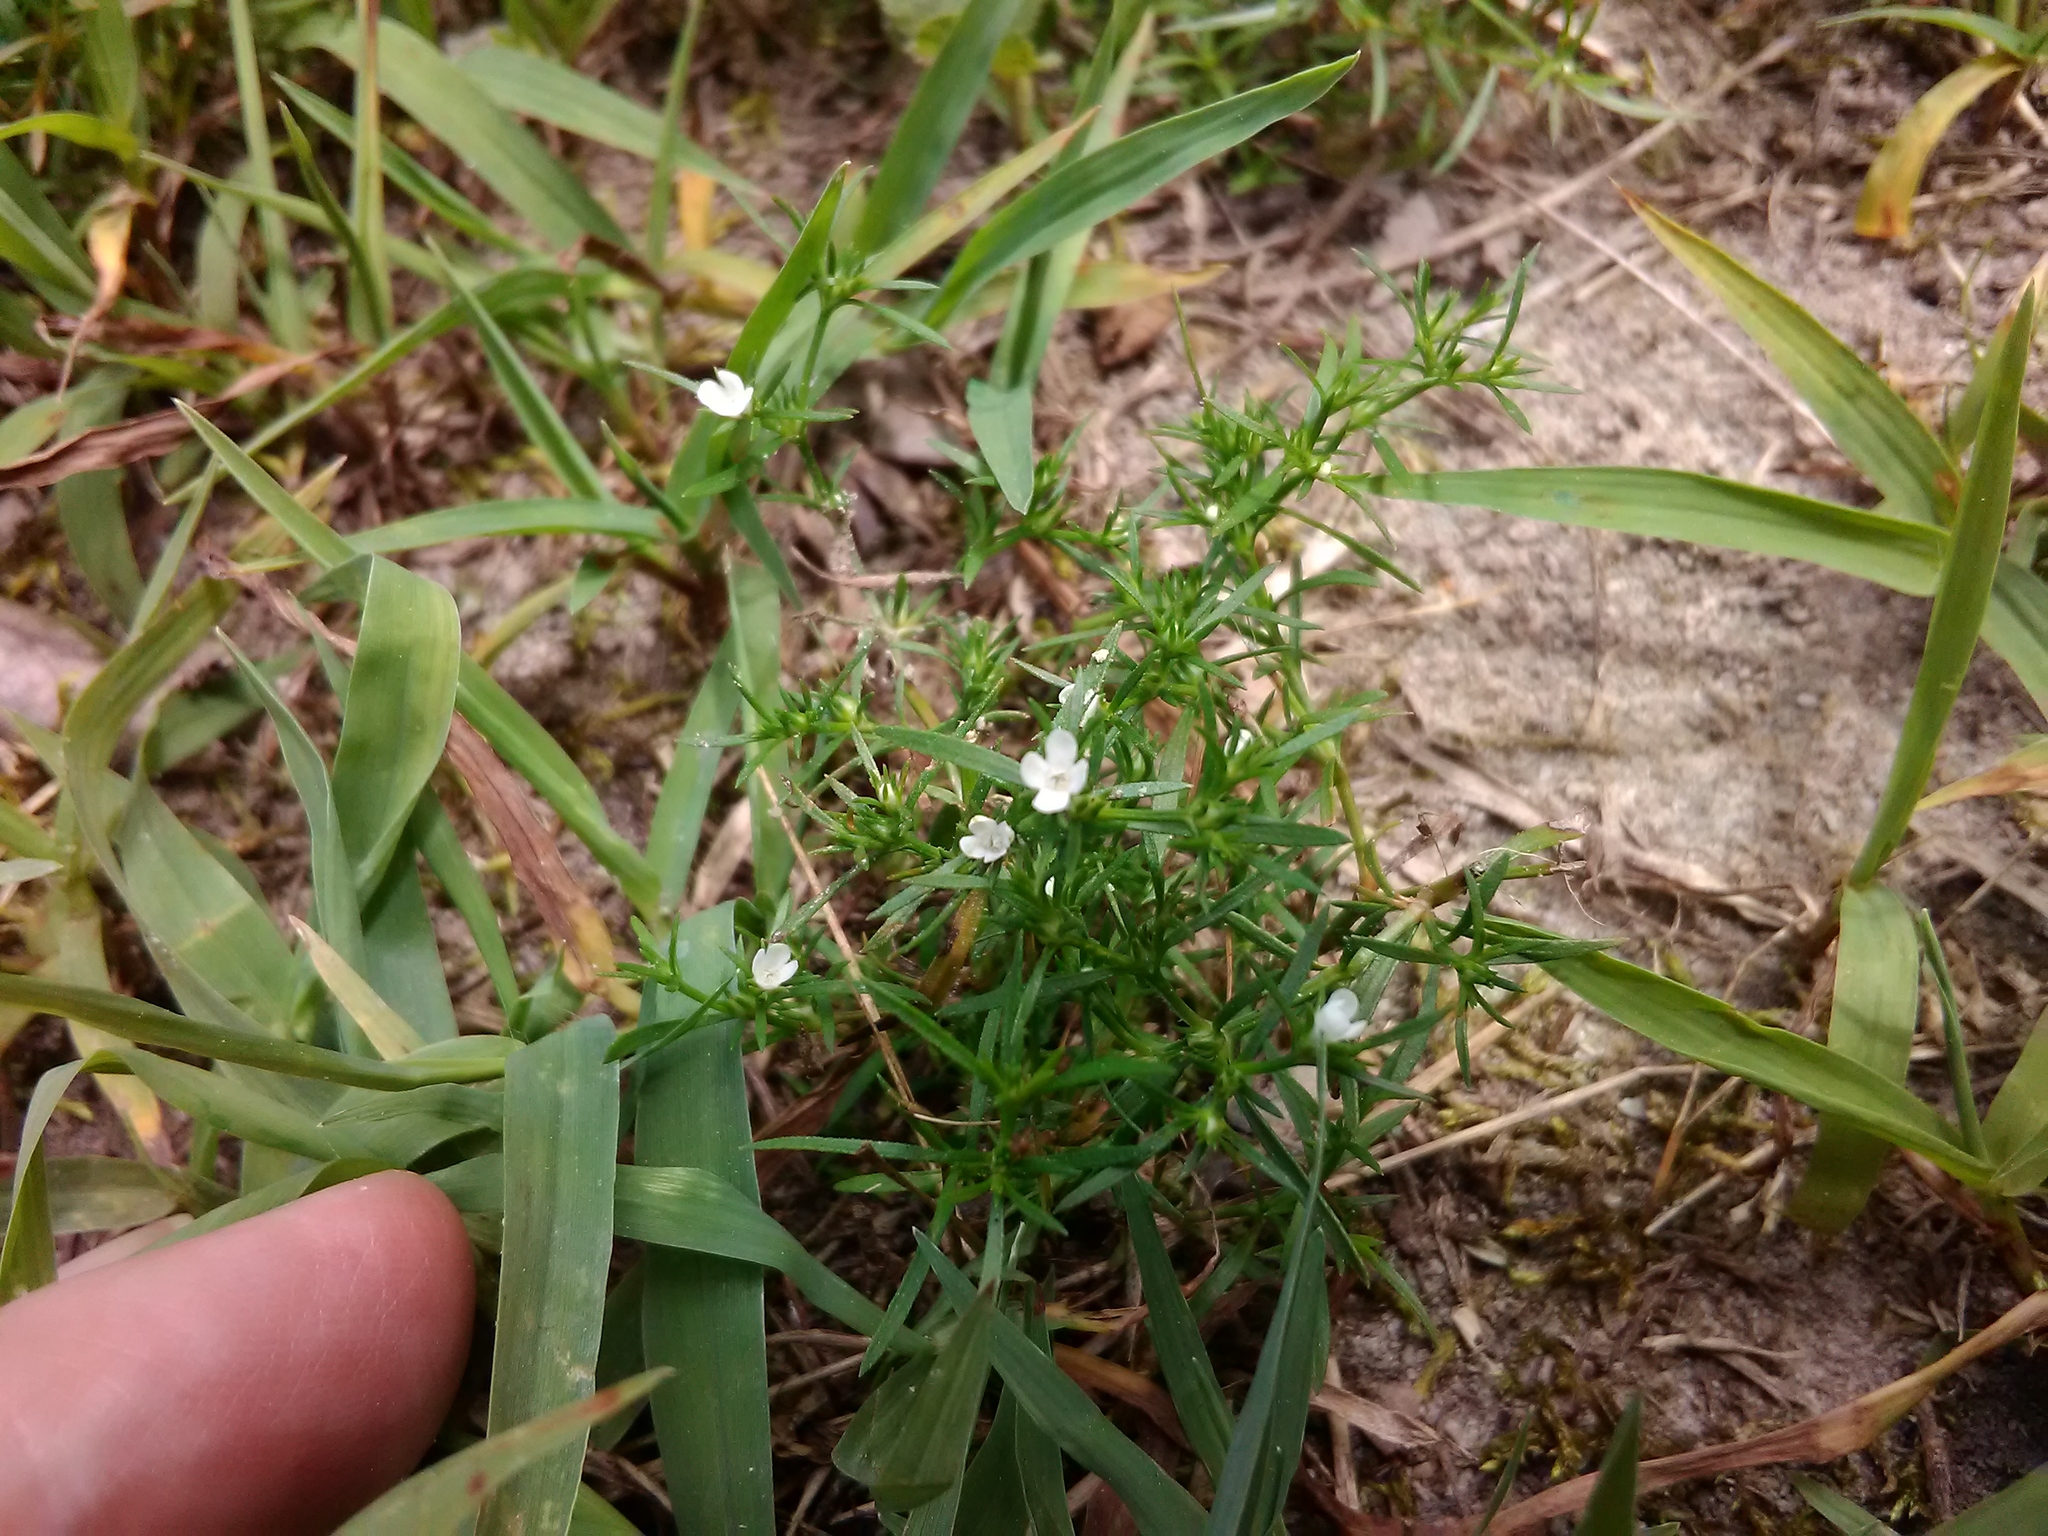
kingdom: Plantae
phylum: Tracheophyta
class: Magnoliopsida
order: Lamiales
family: Tetrachondraceae
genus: Polypremum
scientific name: Polypremum procumbens
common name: Juniper-leaf
